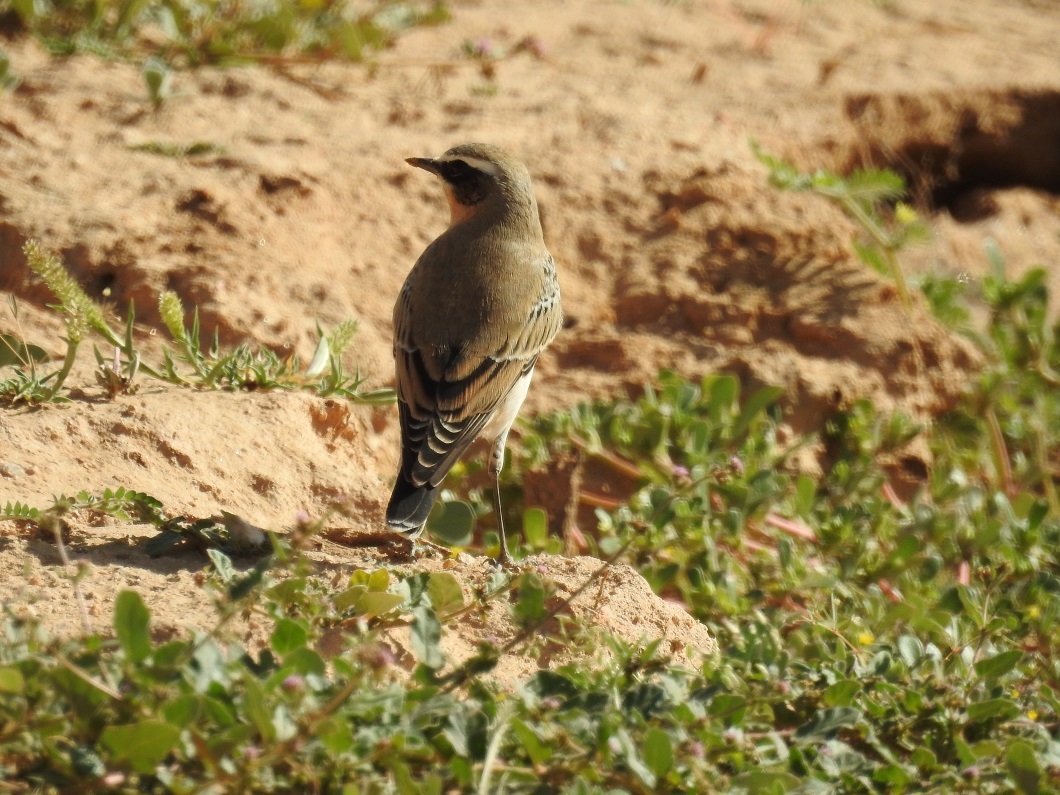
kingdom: Animalia
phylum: Chordata
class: Aves
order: Passeriformes
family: Muscicapidae
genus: Oenanthe
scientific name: Oenanthe oenanthe
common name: Northern wheatear
